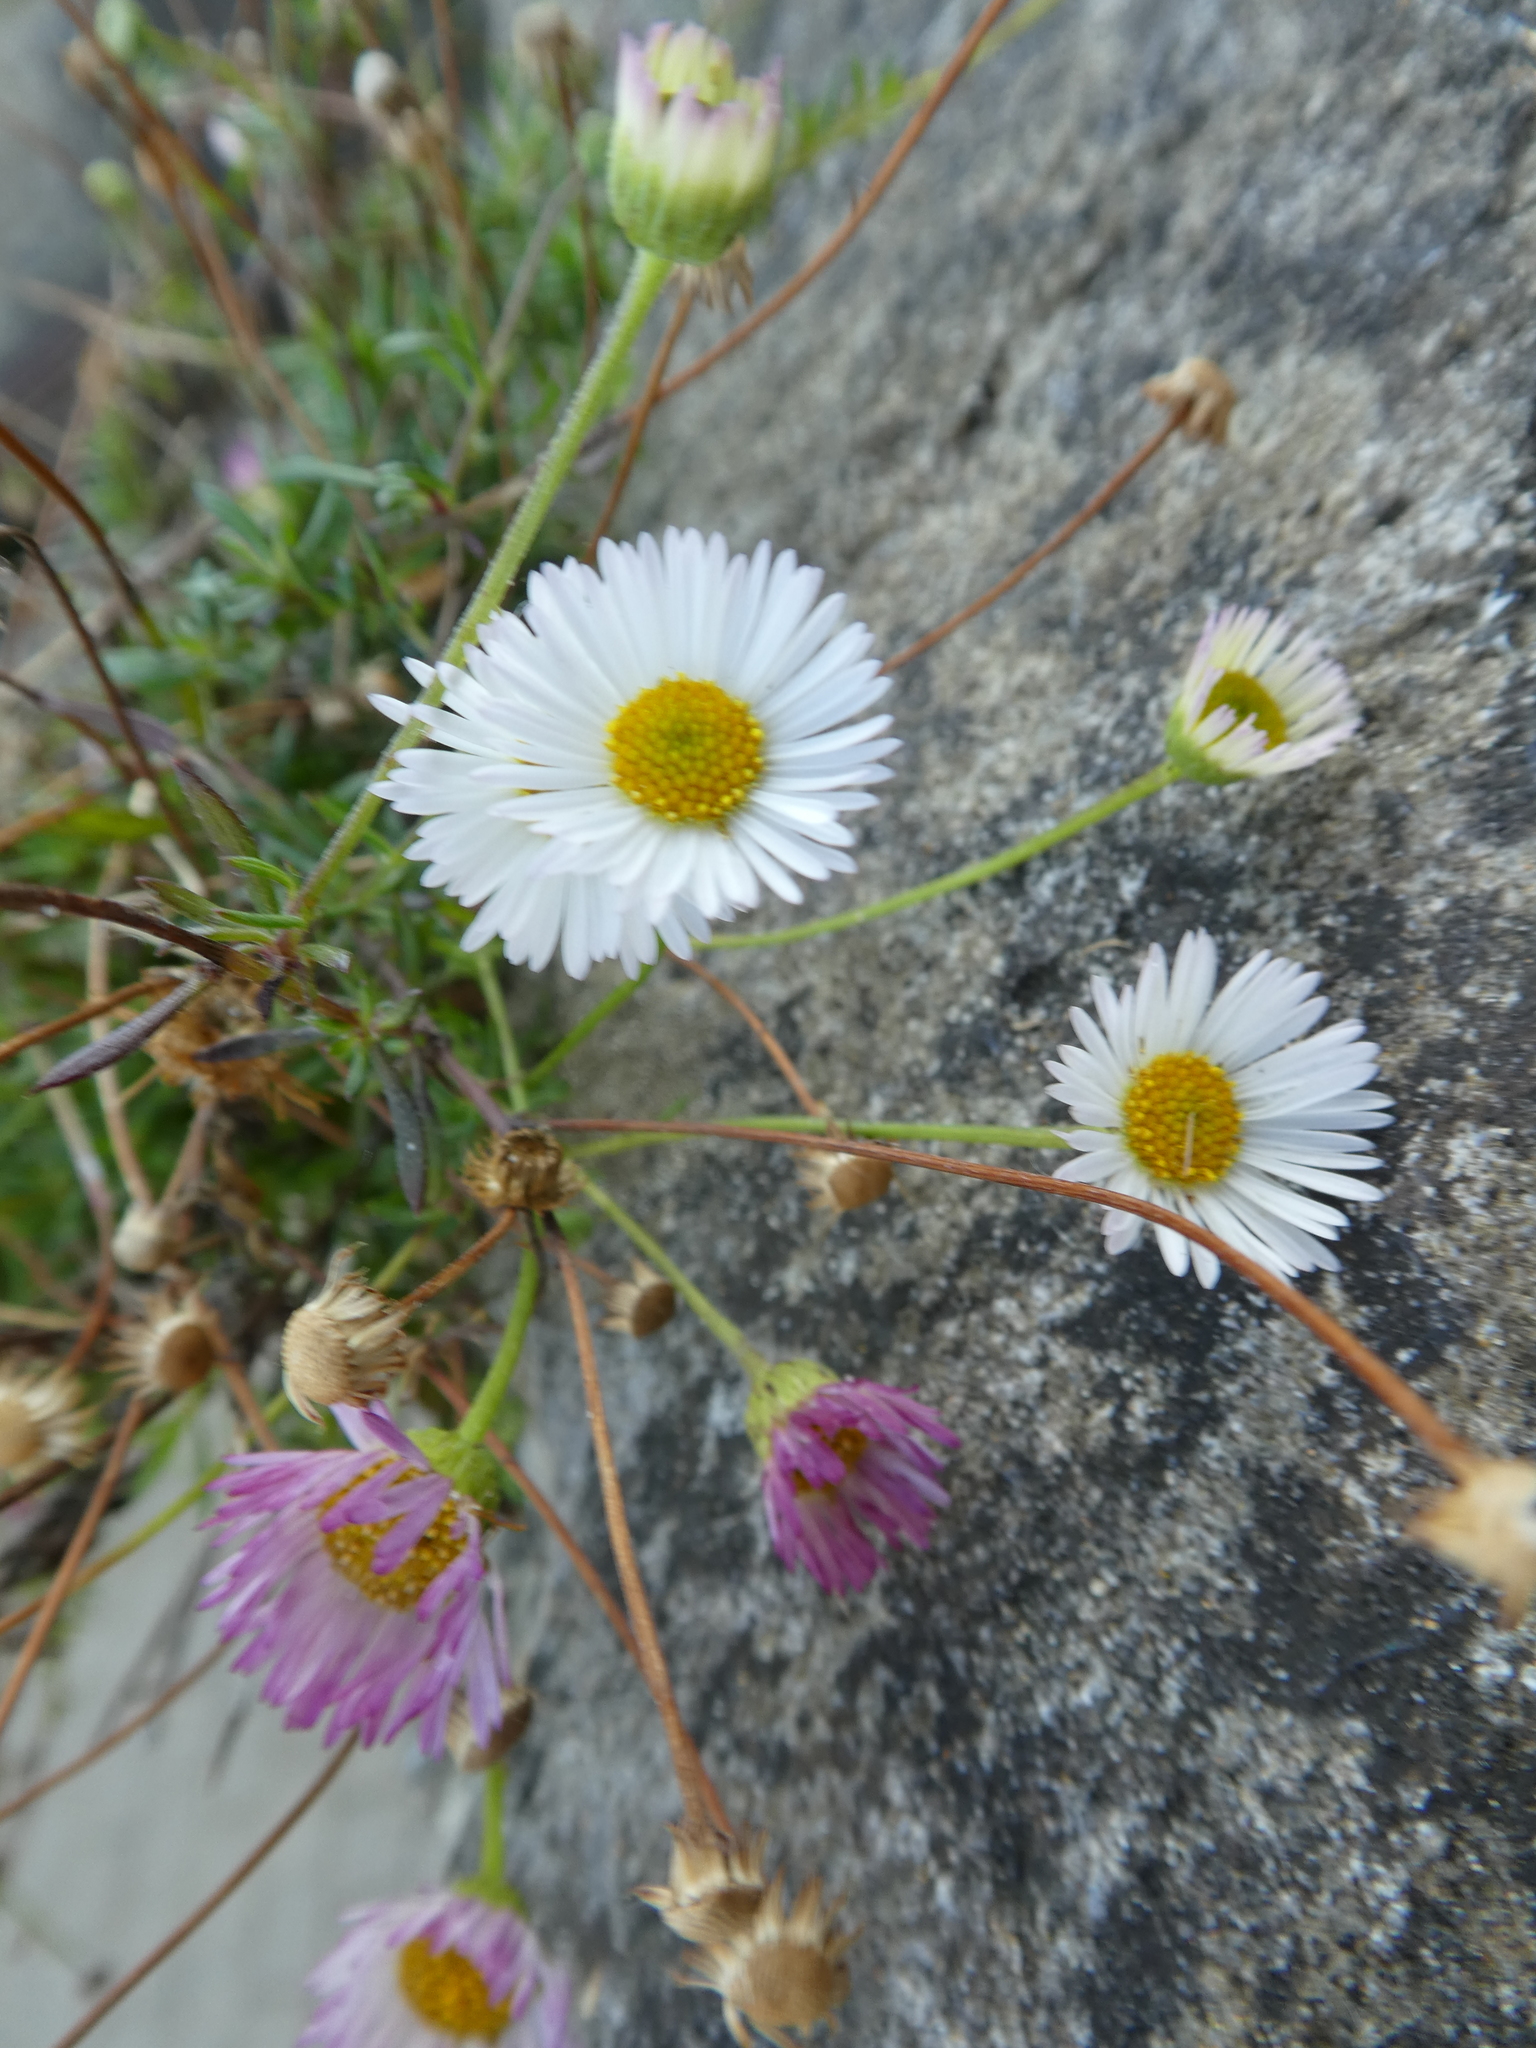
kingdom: Plantae
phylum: Tracheophyta
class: Magnoliopsida
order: Asterales
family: Asteraceae
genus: Erigeron
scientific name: Erigeron karvinskianus
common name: Mexican fleabane
